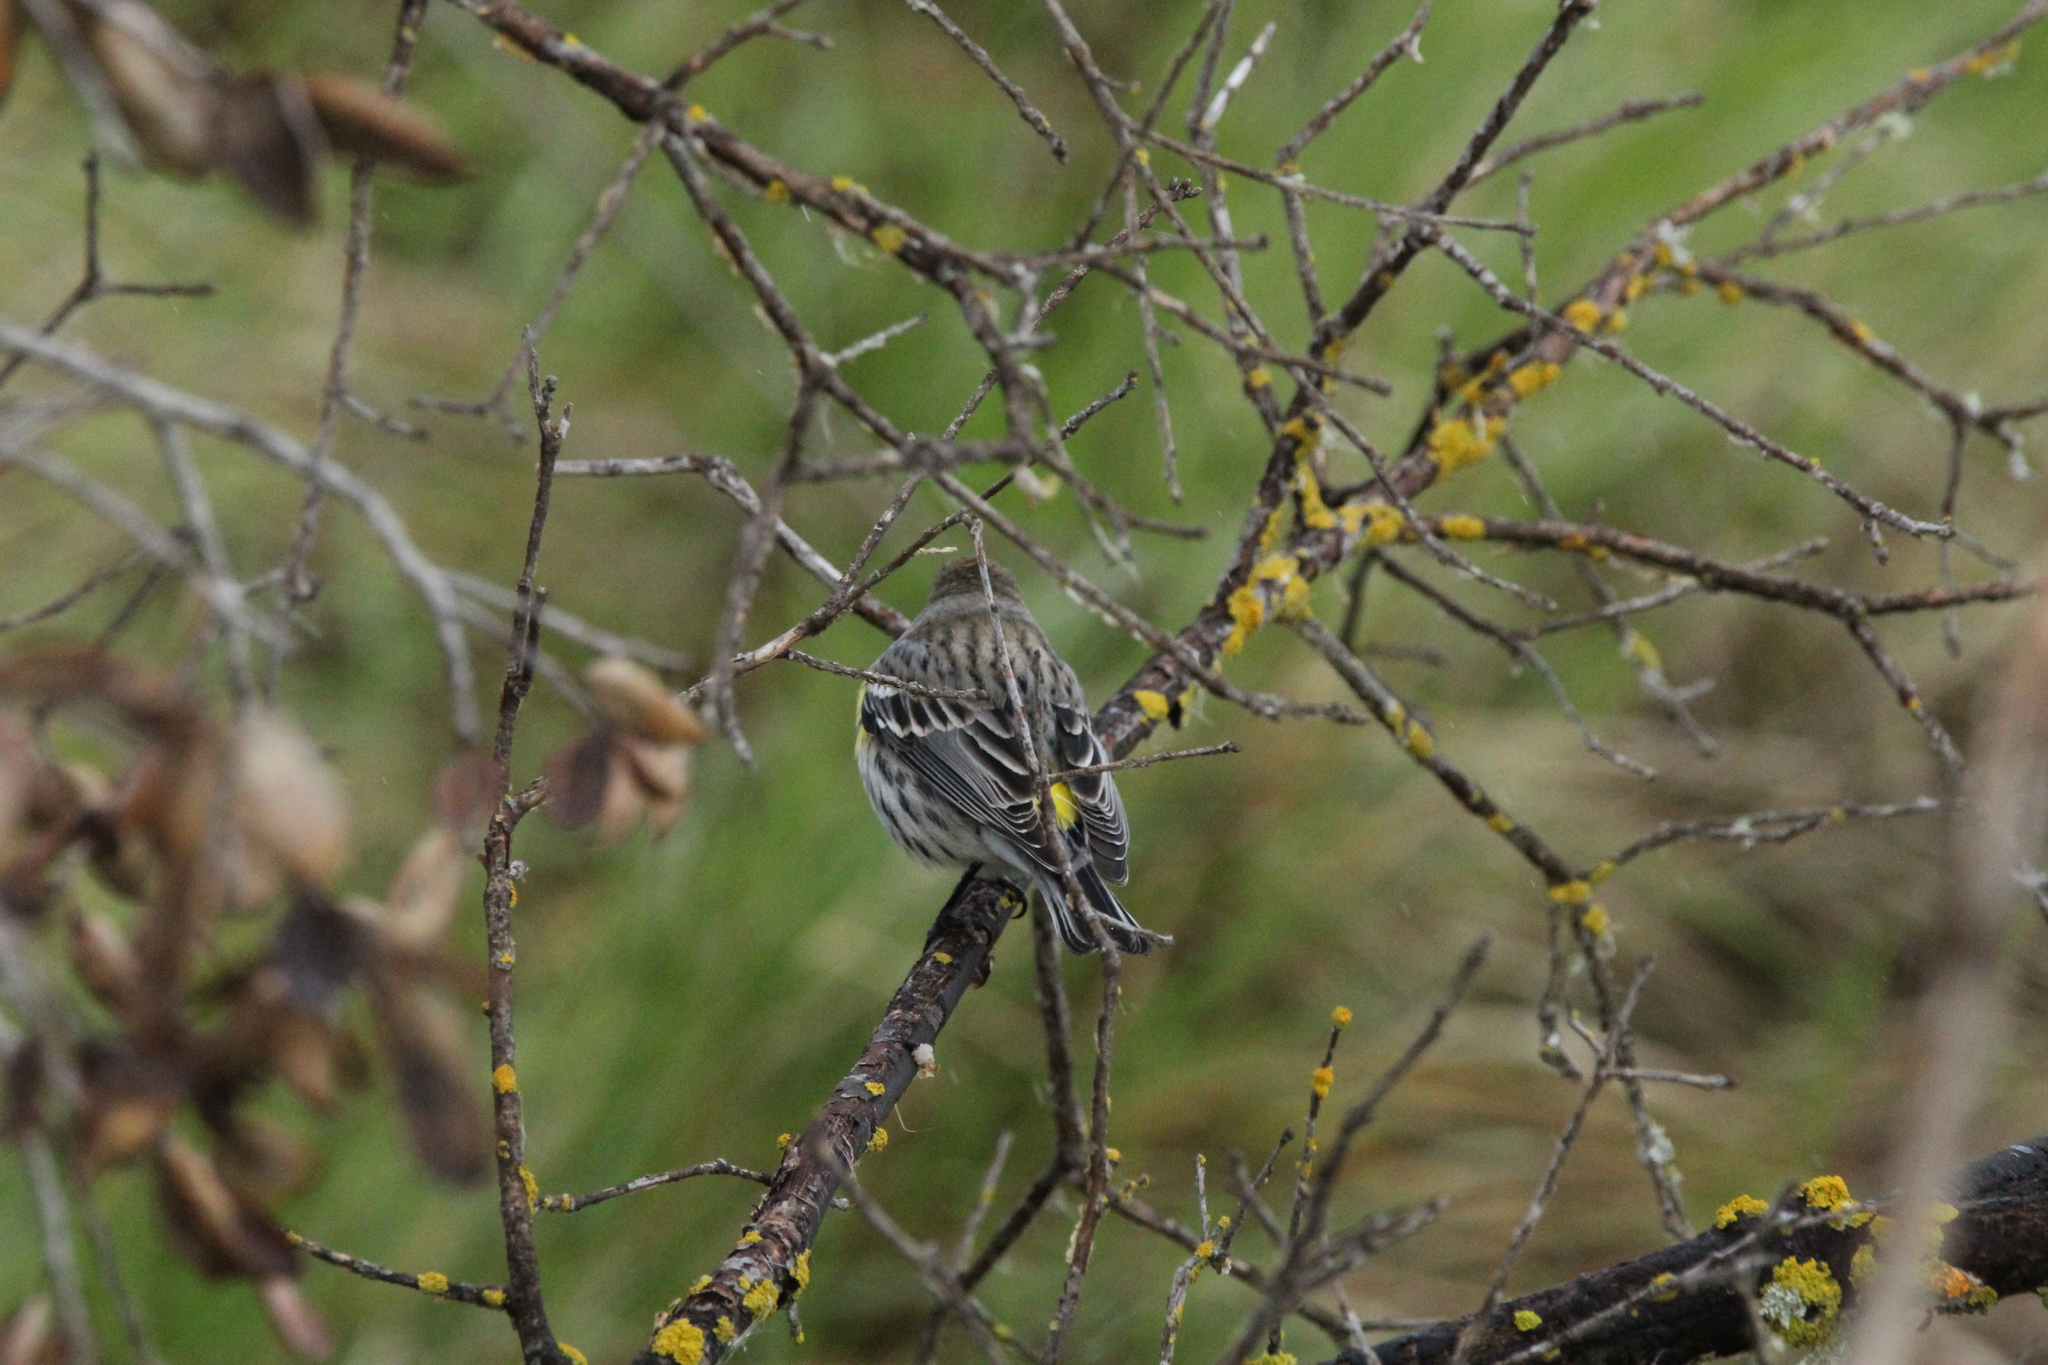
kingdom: Animalia
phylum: Chordata
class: Aves
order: Passeriformes
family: Parulidae
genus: Setophaga
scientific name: Setophaga coronata
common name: Myrtle warbler
